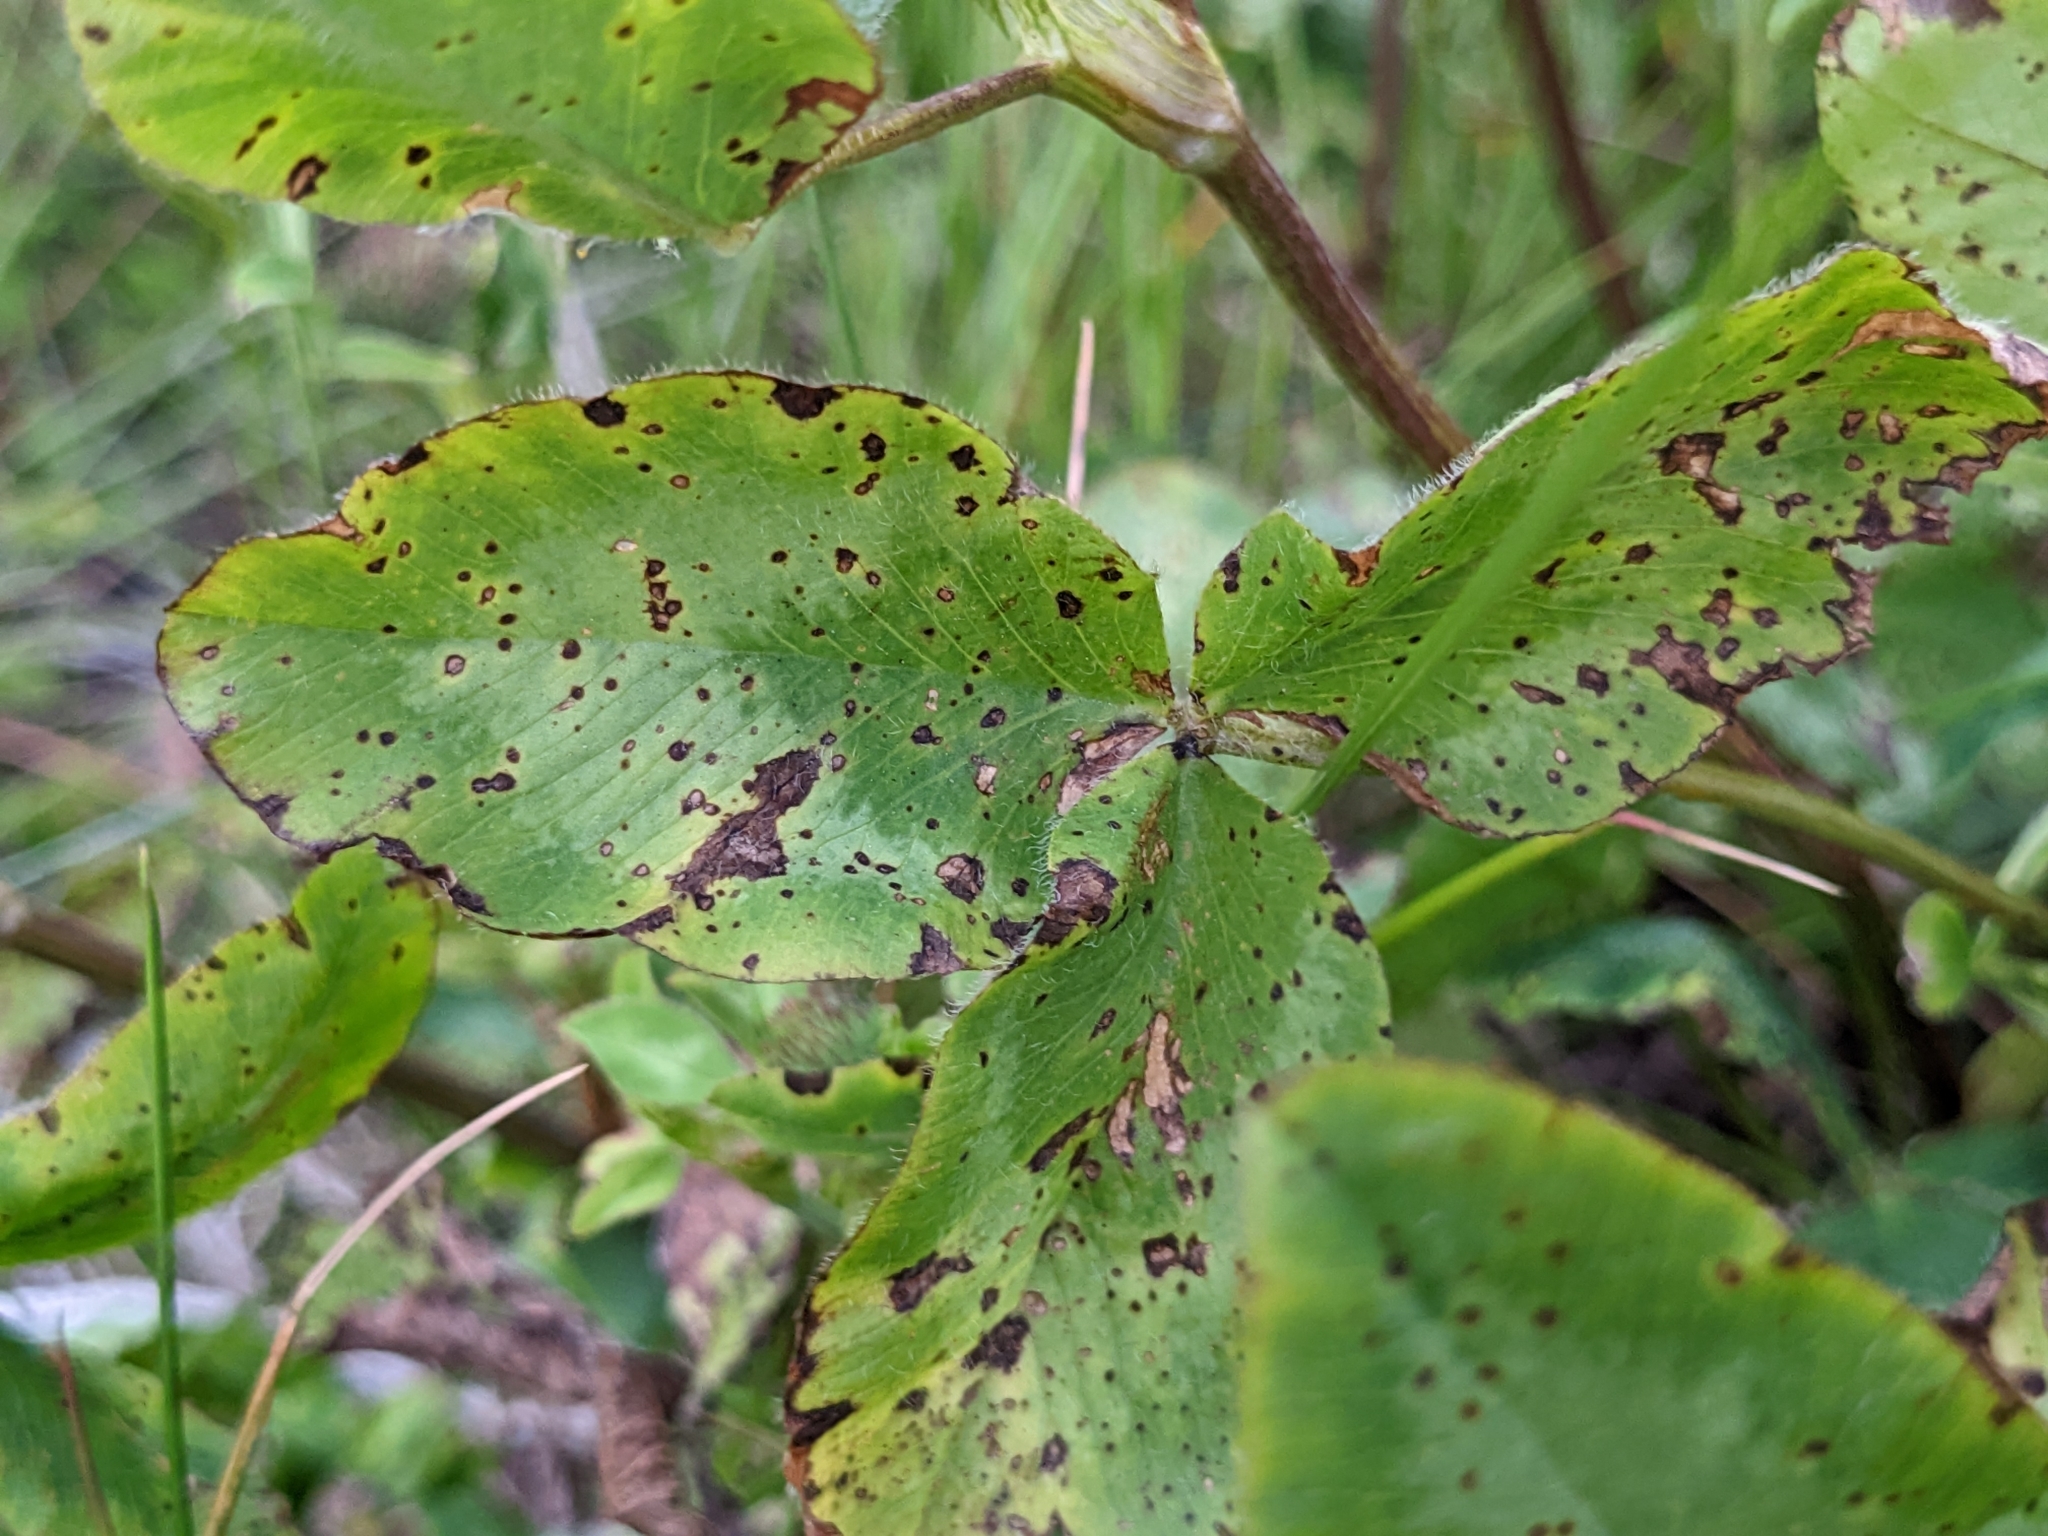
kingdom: Plantae
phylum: Tracheophyta
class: Magnoliopsida
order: Fabales
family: Fabaceae
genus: Trifolium
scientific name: Trifolium pratense
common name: Red clover
